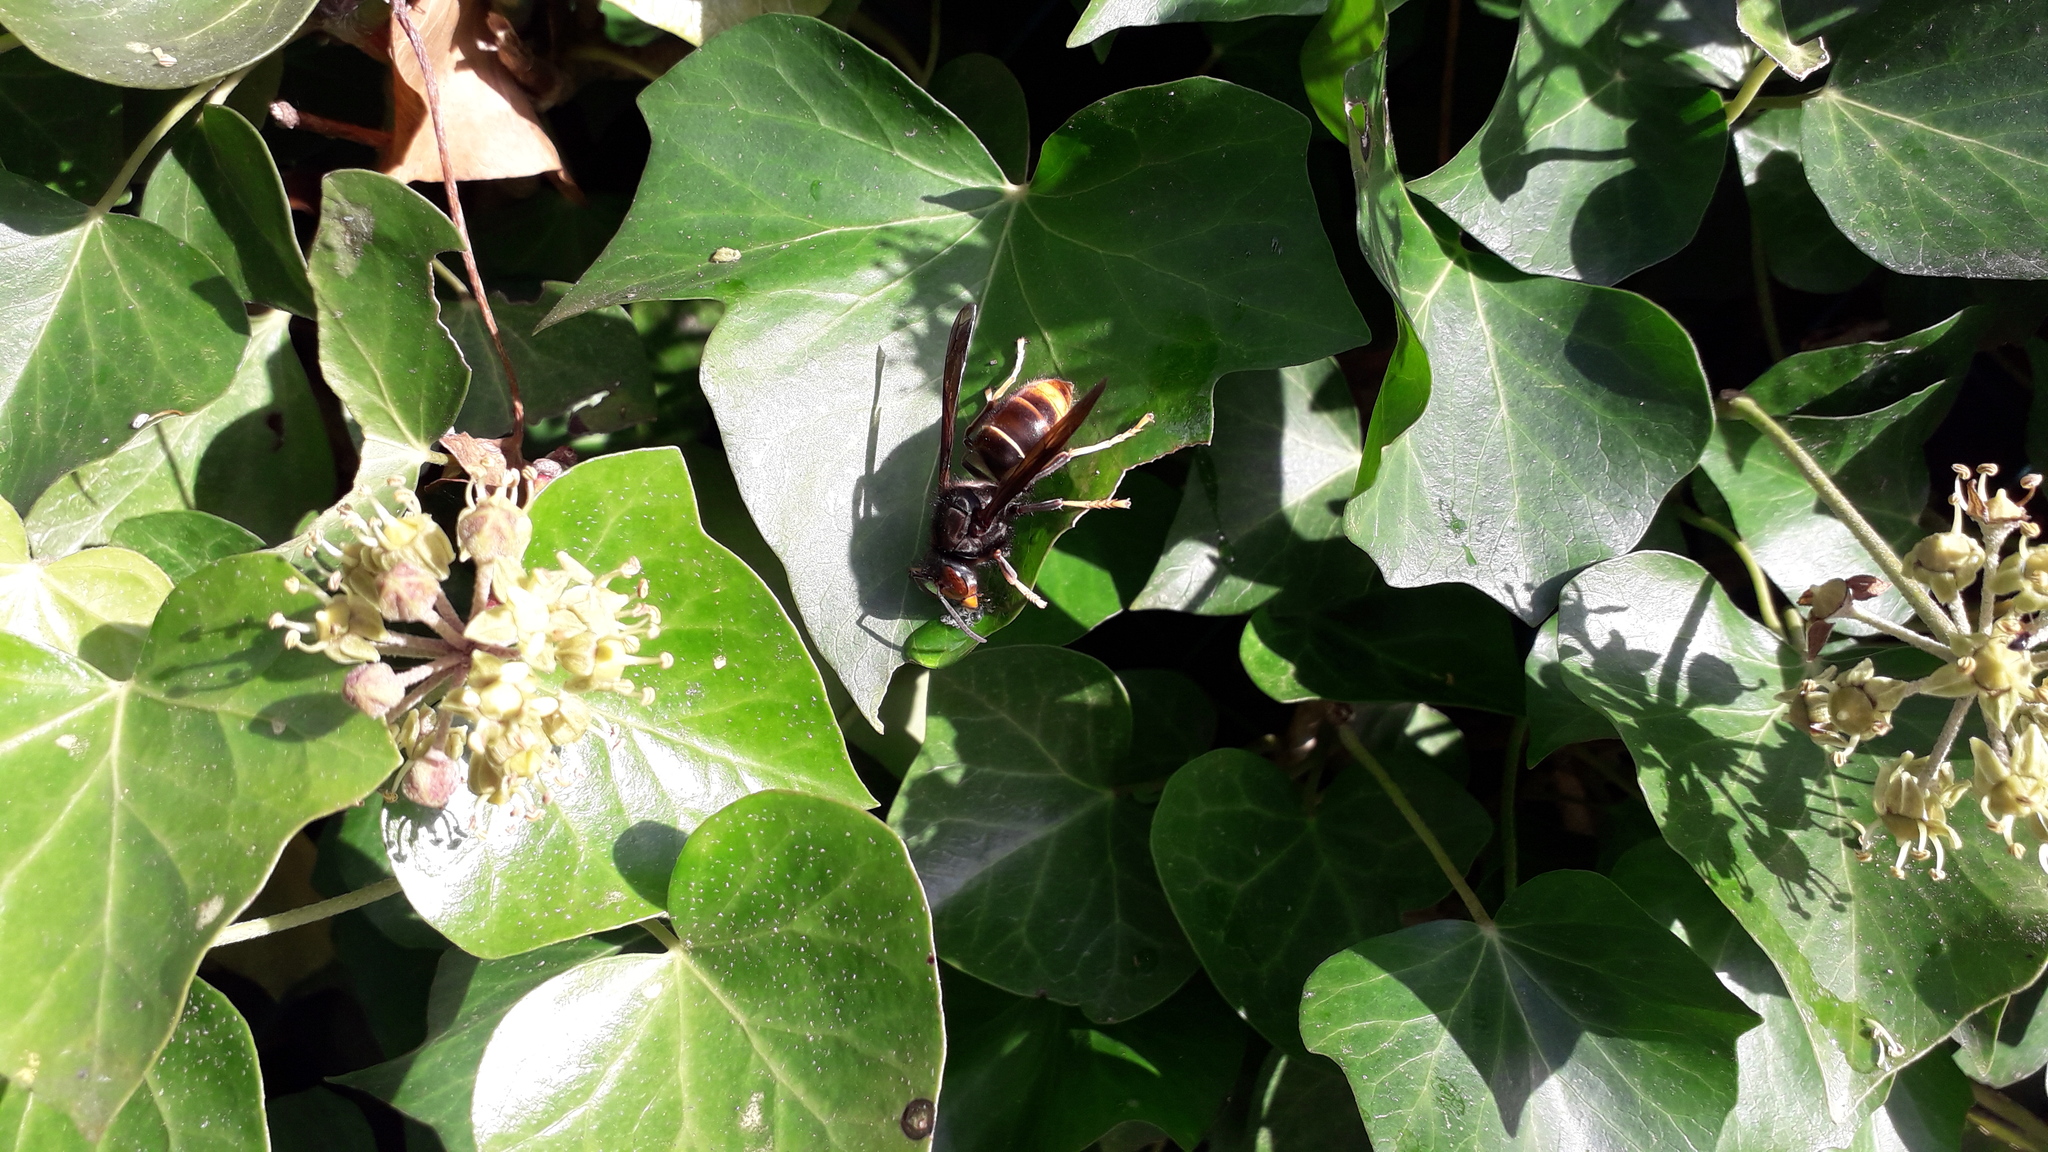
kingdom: Animalia
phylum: Arthropoda
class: Insecta
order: Hymenoptera
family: Vespidae
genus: Vespa
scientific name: Vespa velutina
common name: Asian hornet
